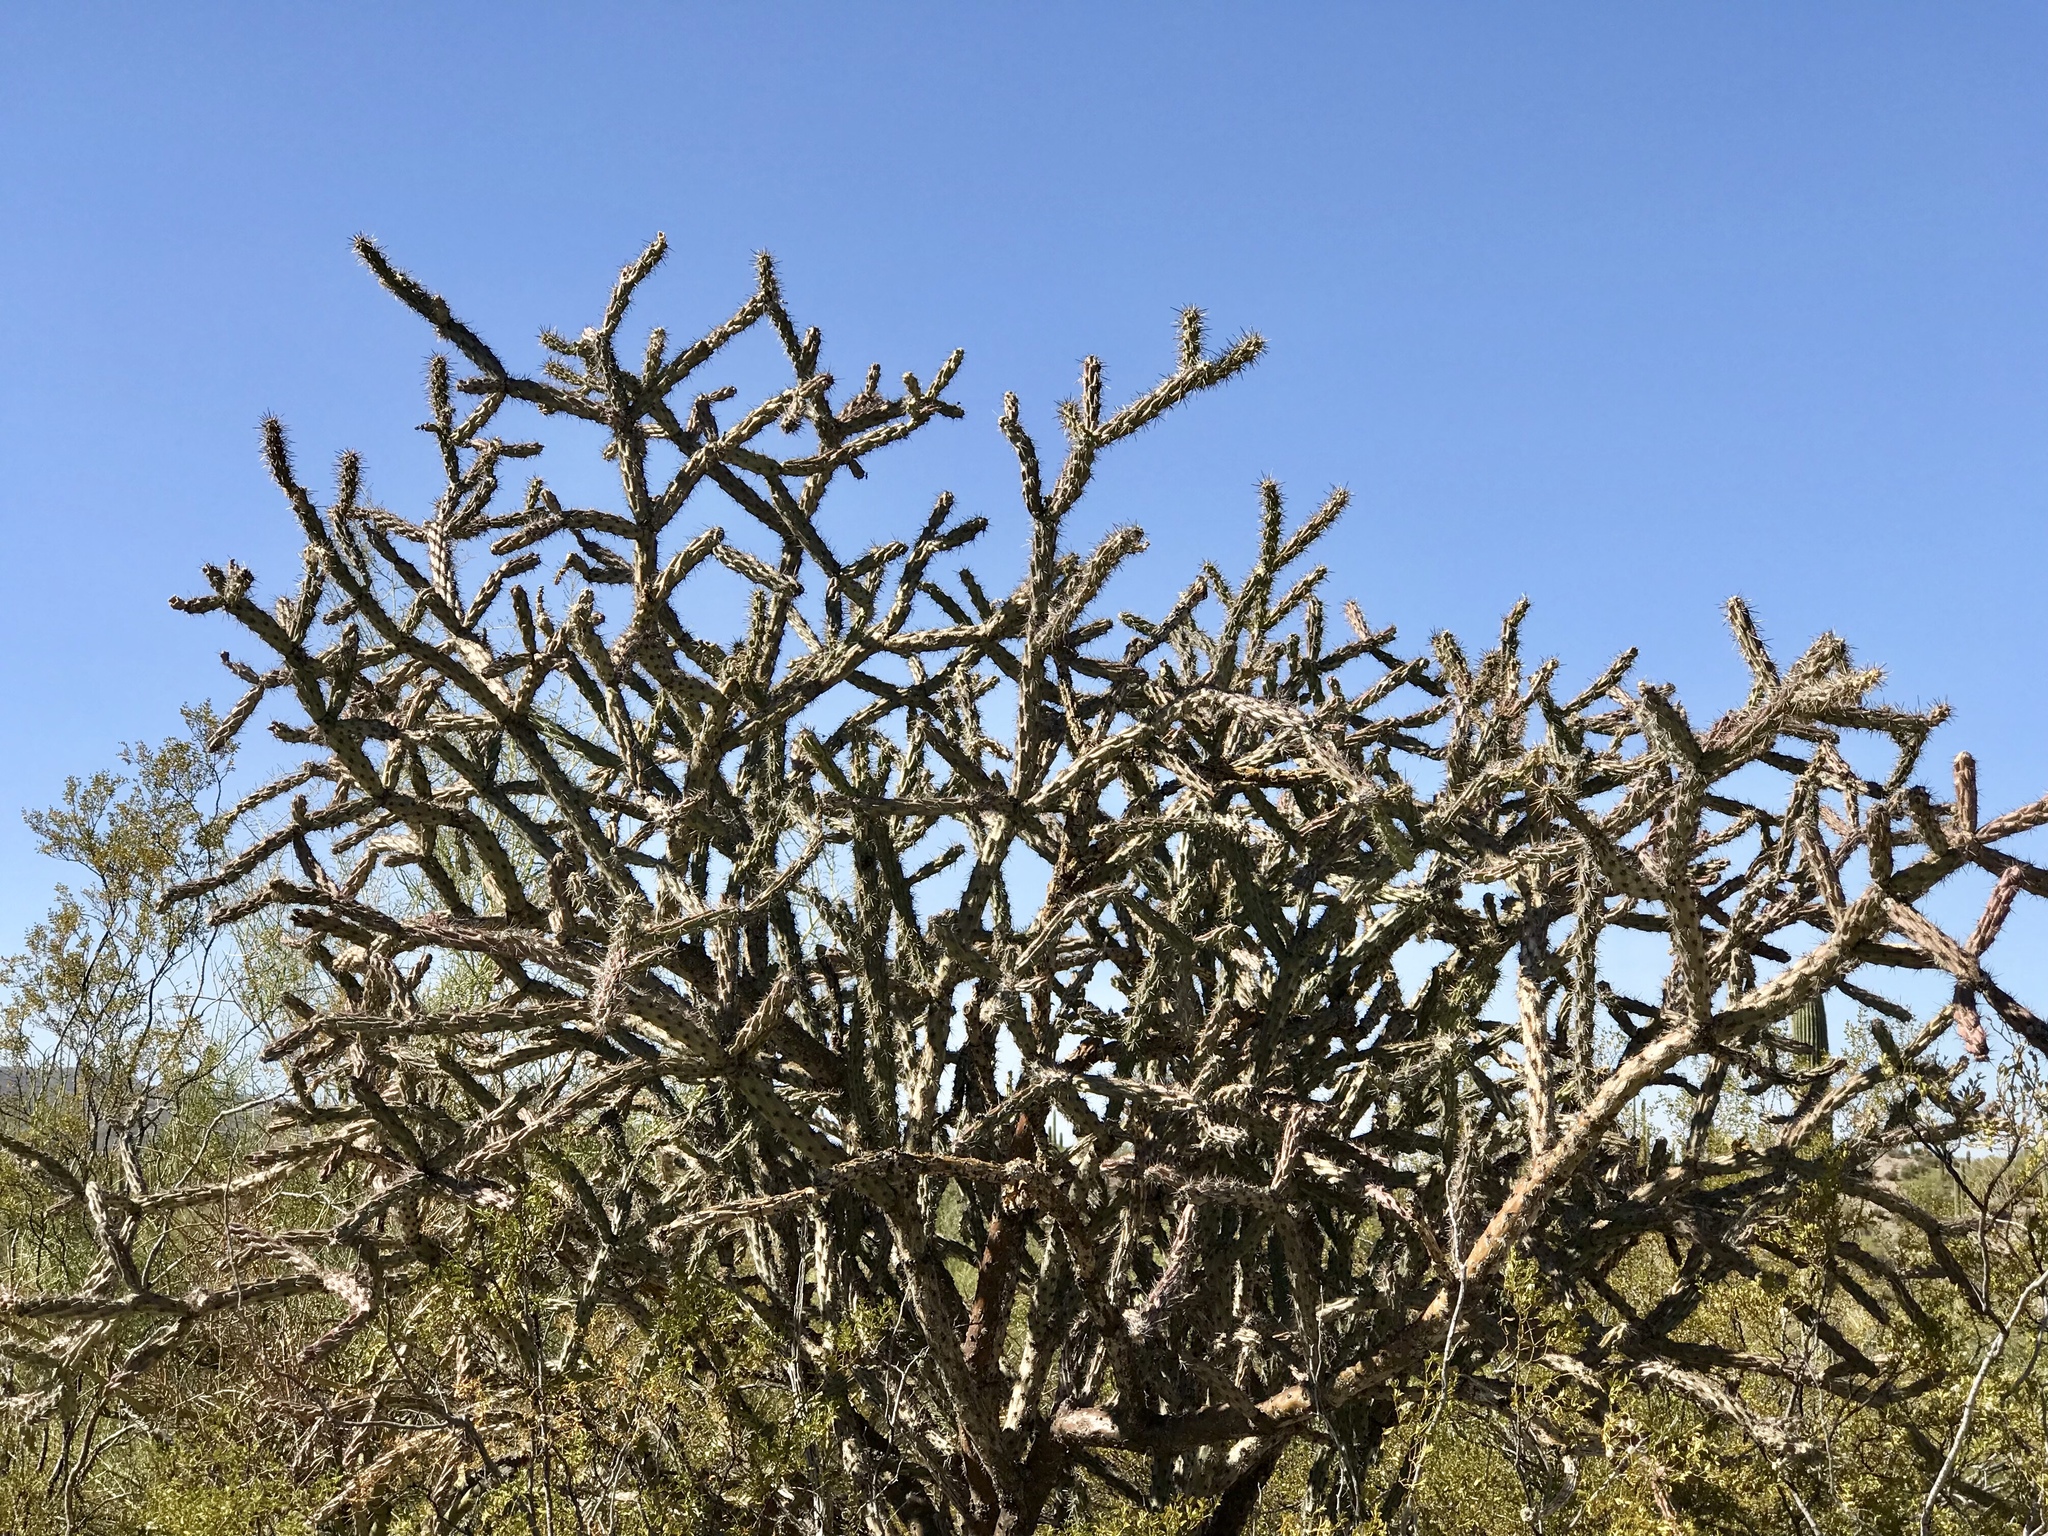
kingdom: Plantae
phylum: Tracheophyta
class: Magnoliopsida
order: Caryophyllales
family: Cactaceae
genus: Cylindropuntia
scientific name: Cylindropuntia thurberi
